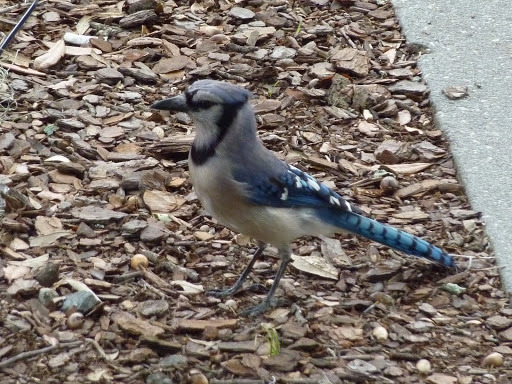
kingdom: Animalia
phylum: Chordata
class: Aves
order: Passeriformes
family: Corvidae
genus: Cyanocitta
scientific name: Cyanocitta cristata
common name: Blue jay
